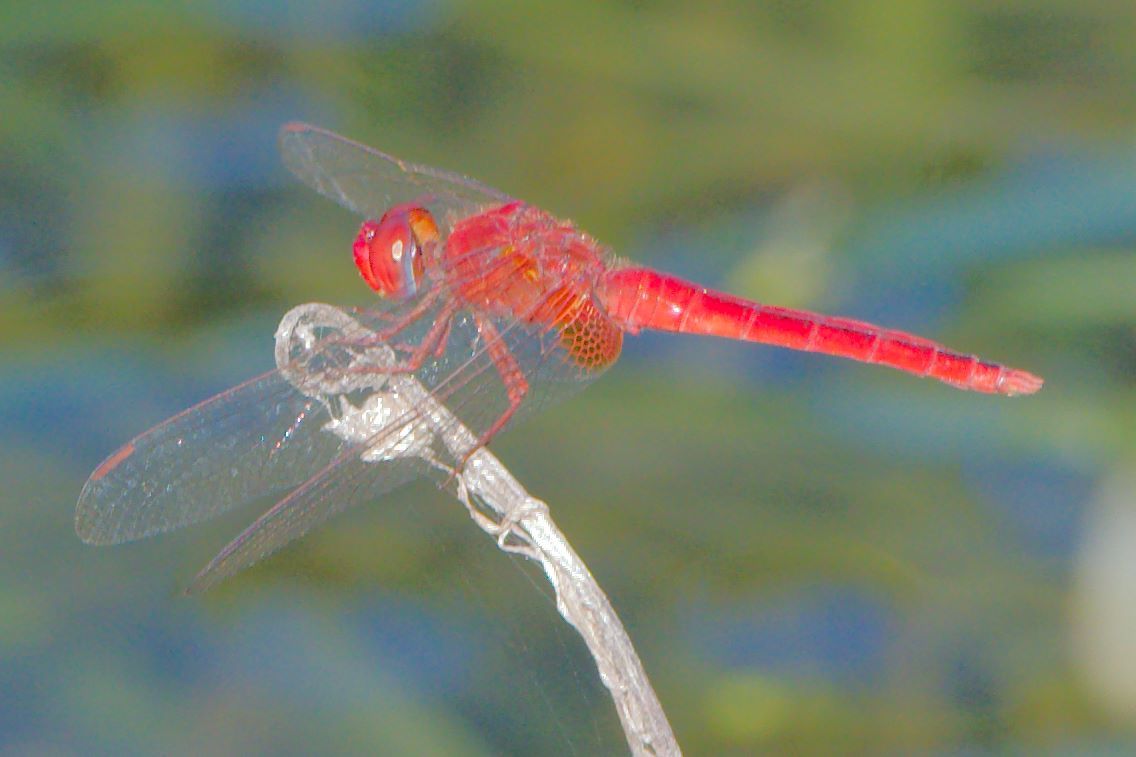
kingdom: Animalia
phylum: Arthropoda
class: Insecta
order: Odonata
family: Libellulidae
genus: Crocothemis
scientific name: Crocothemis servilia
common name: Scarlet skimmer
